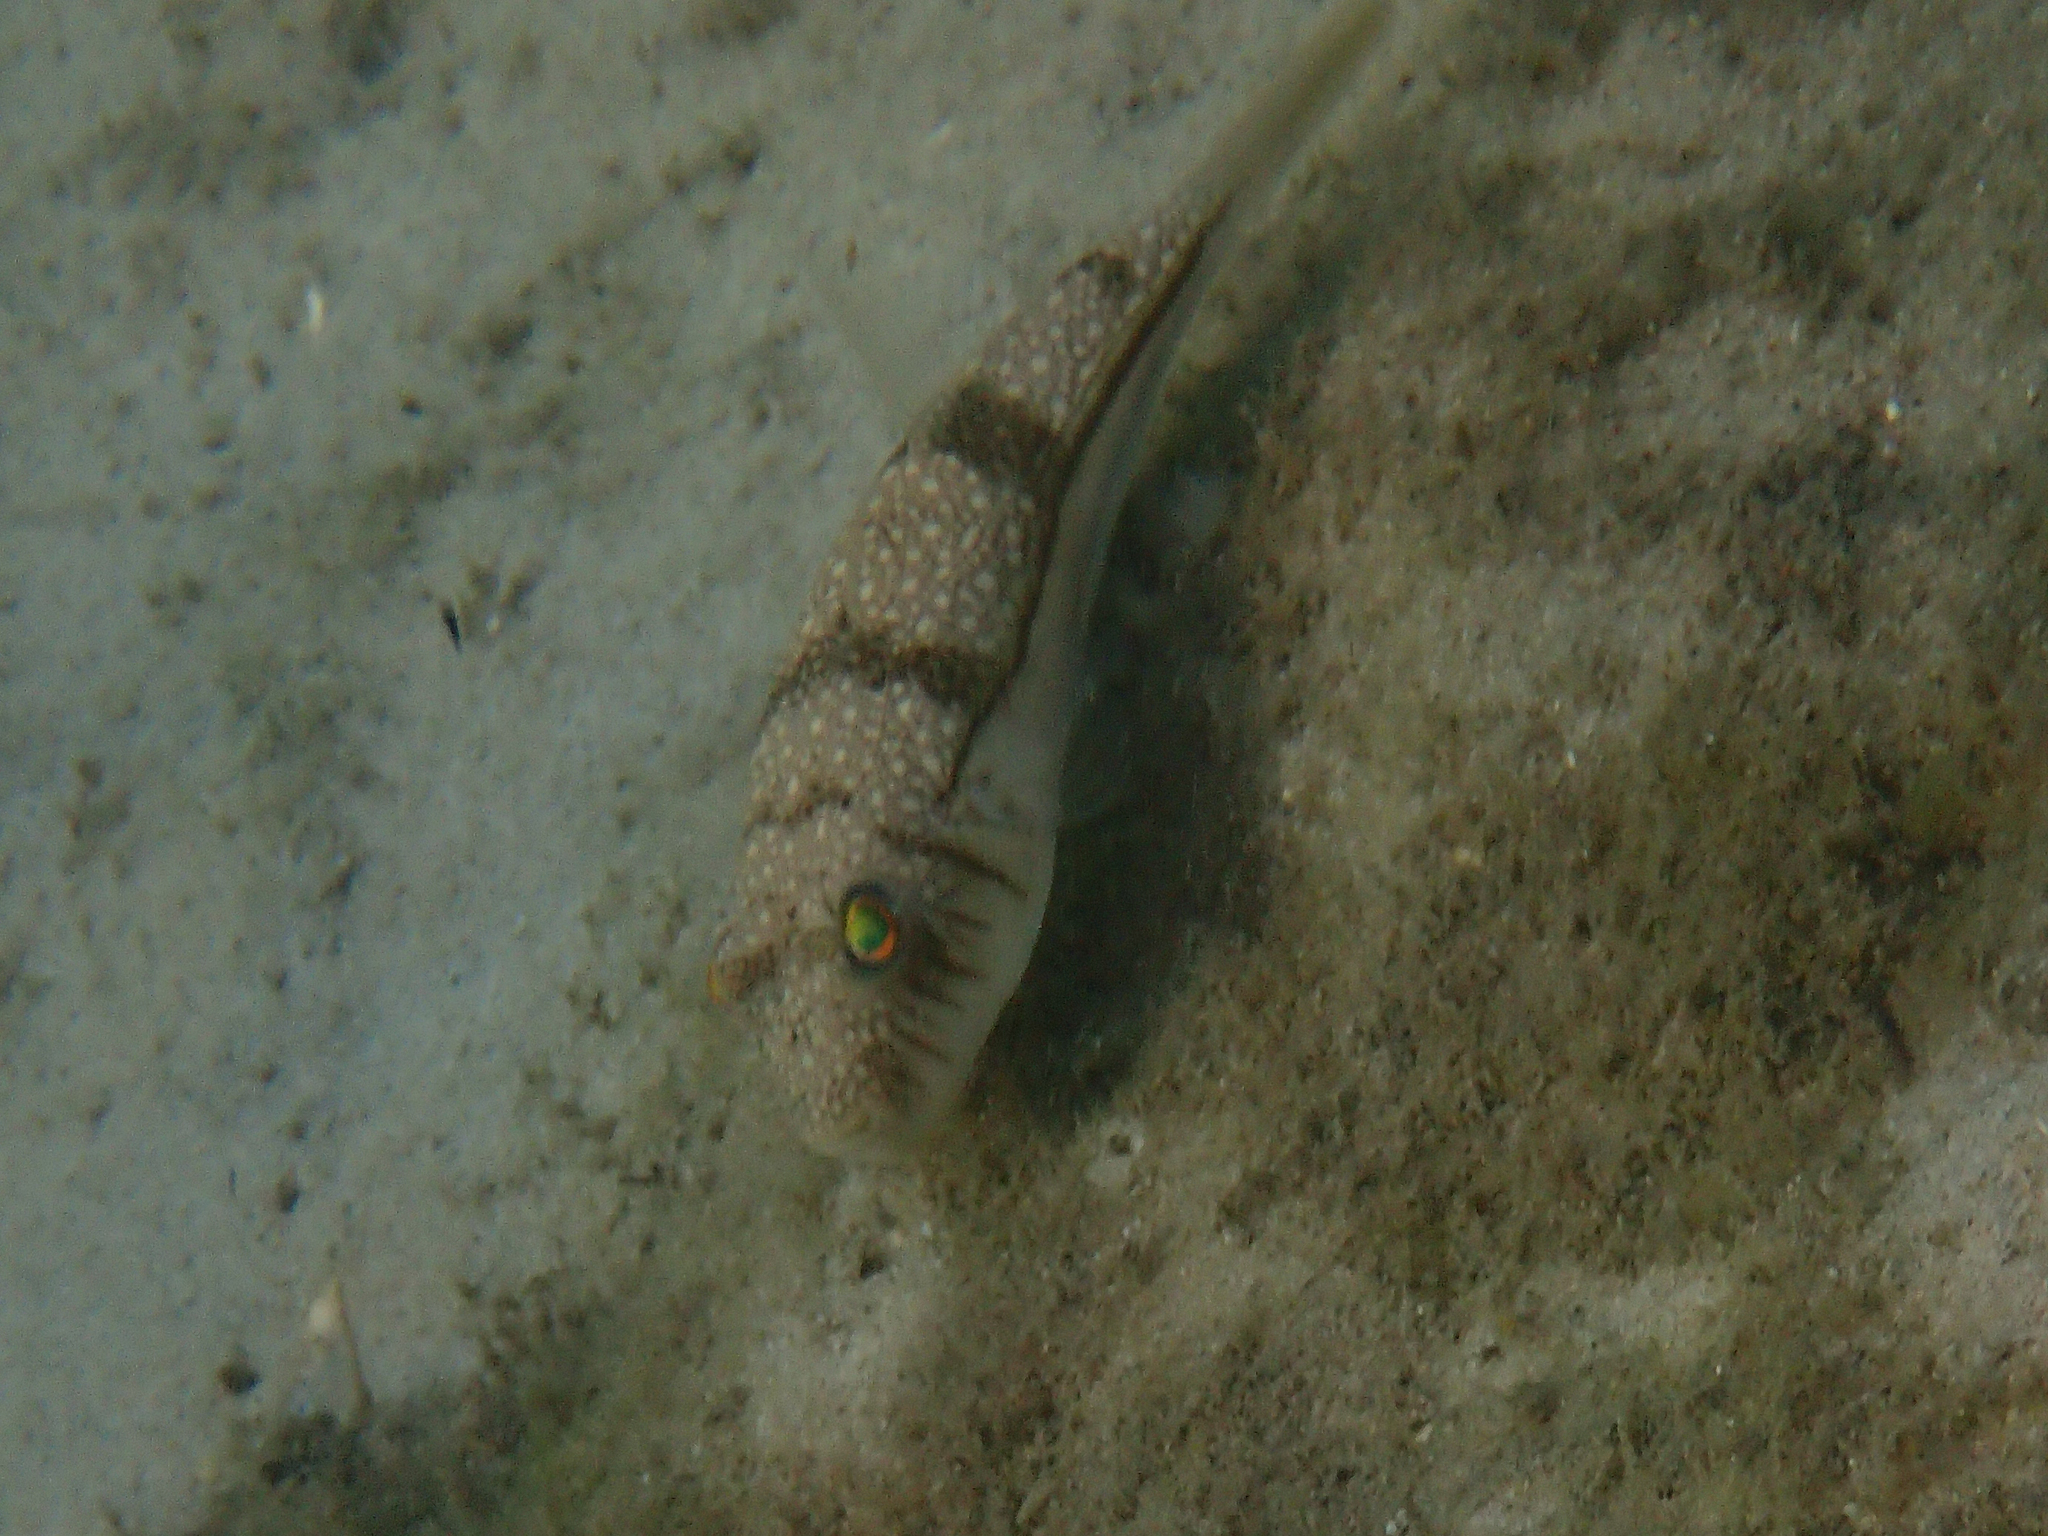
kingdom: Animalia
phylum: Chordata
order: Tetraodontiformes
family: Tetraodontidae
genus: Torquigener
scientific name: Torquigener pleurogramma
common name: Banded toadfish
